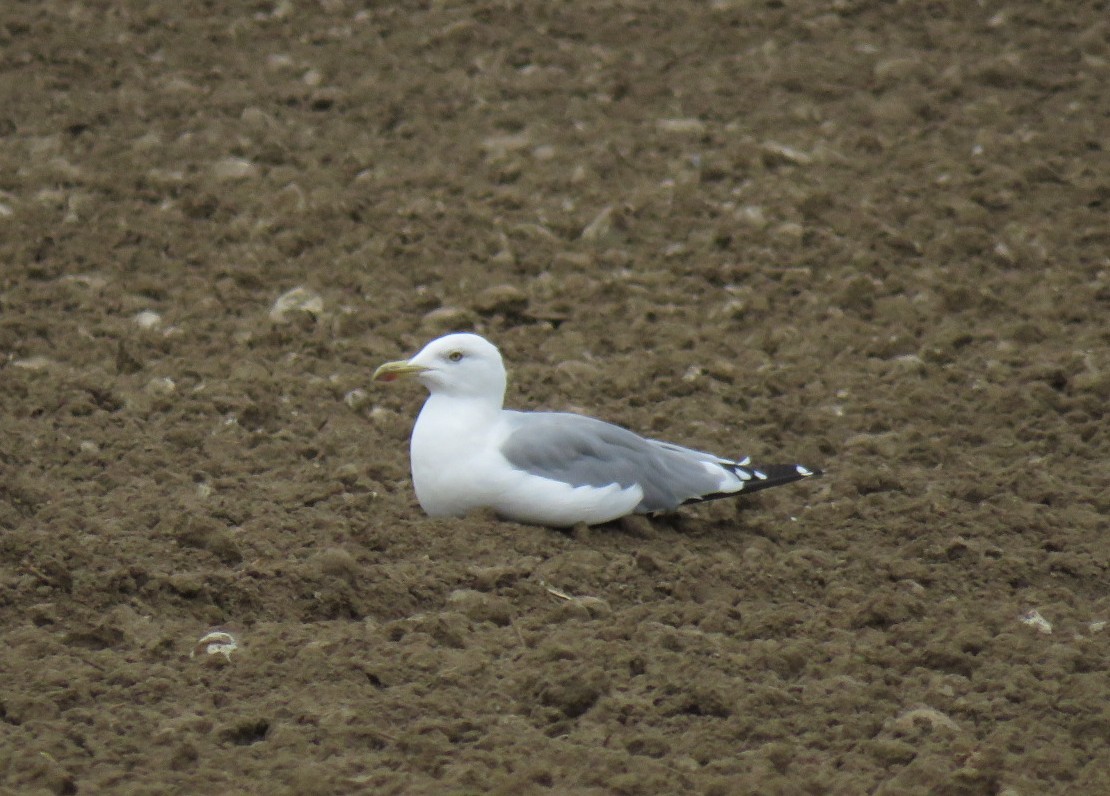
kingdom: Animalia
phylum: Chordata
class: Aves
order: Charadriiformes
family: Laridae
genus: Larus
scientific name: Larus michahellis
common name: Yellow-legged gull
